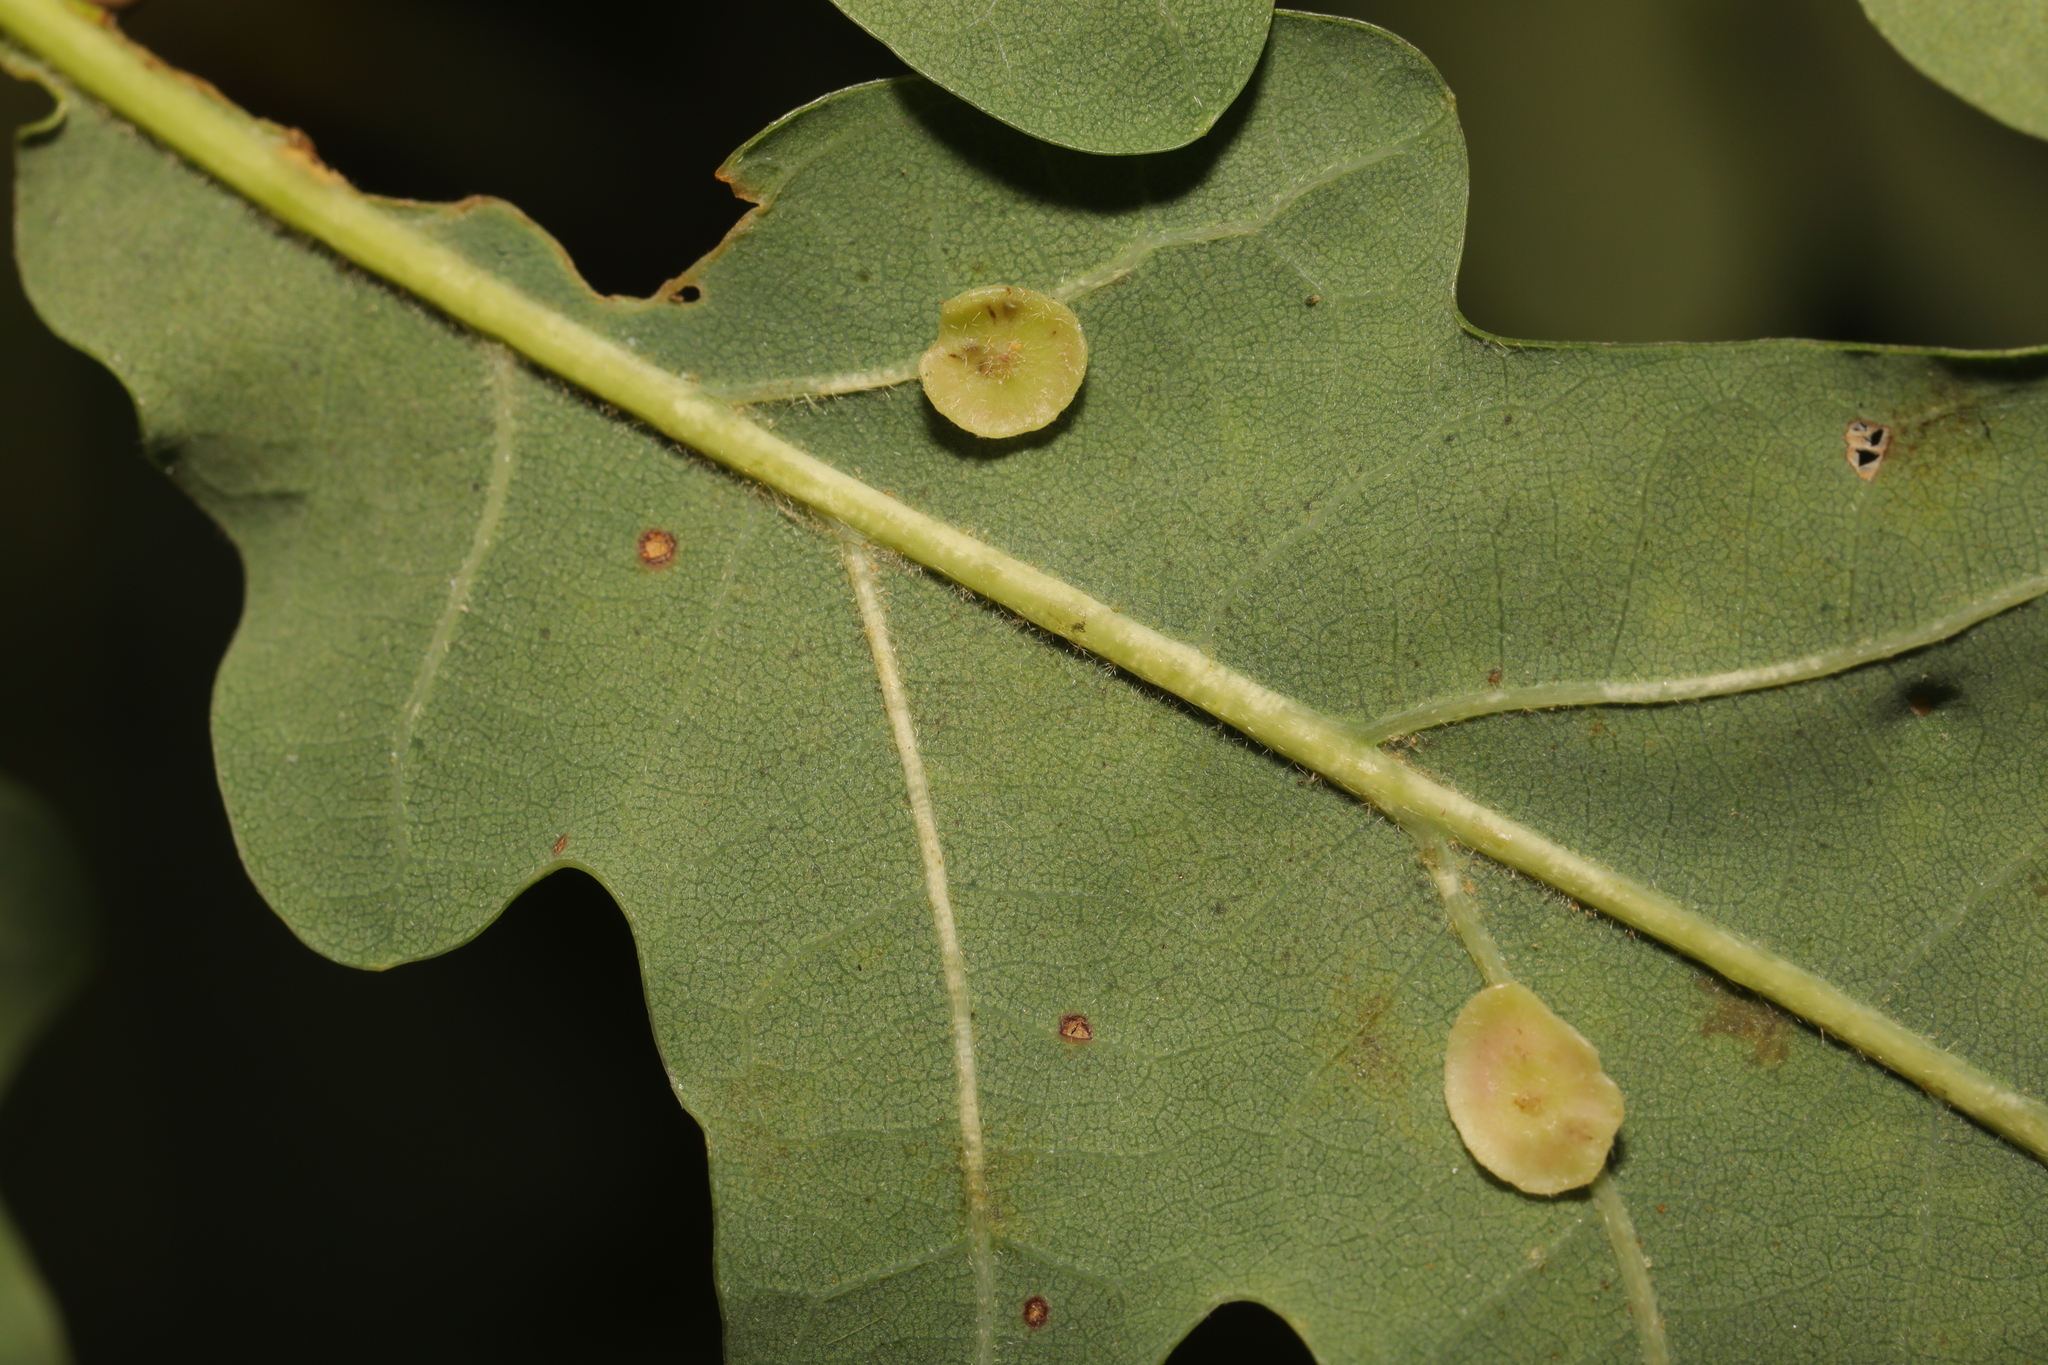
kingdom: Animalia
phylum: Arthropoda
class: Insecta
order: Hymenoptera
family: Cynipidae
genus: Neuroterus
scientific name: Neuroterus albipes
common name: Smooth spangle gall
